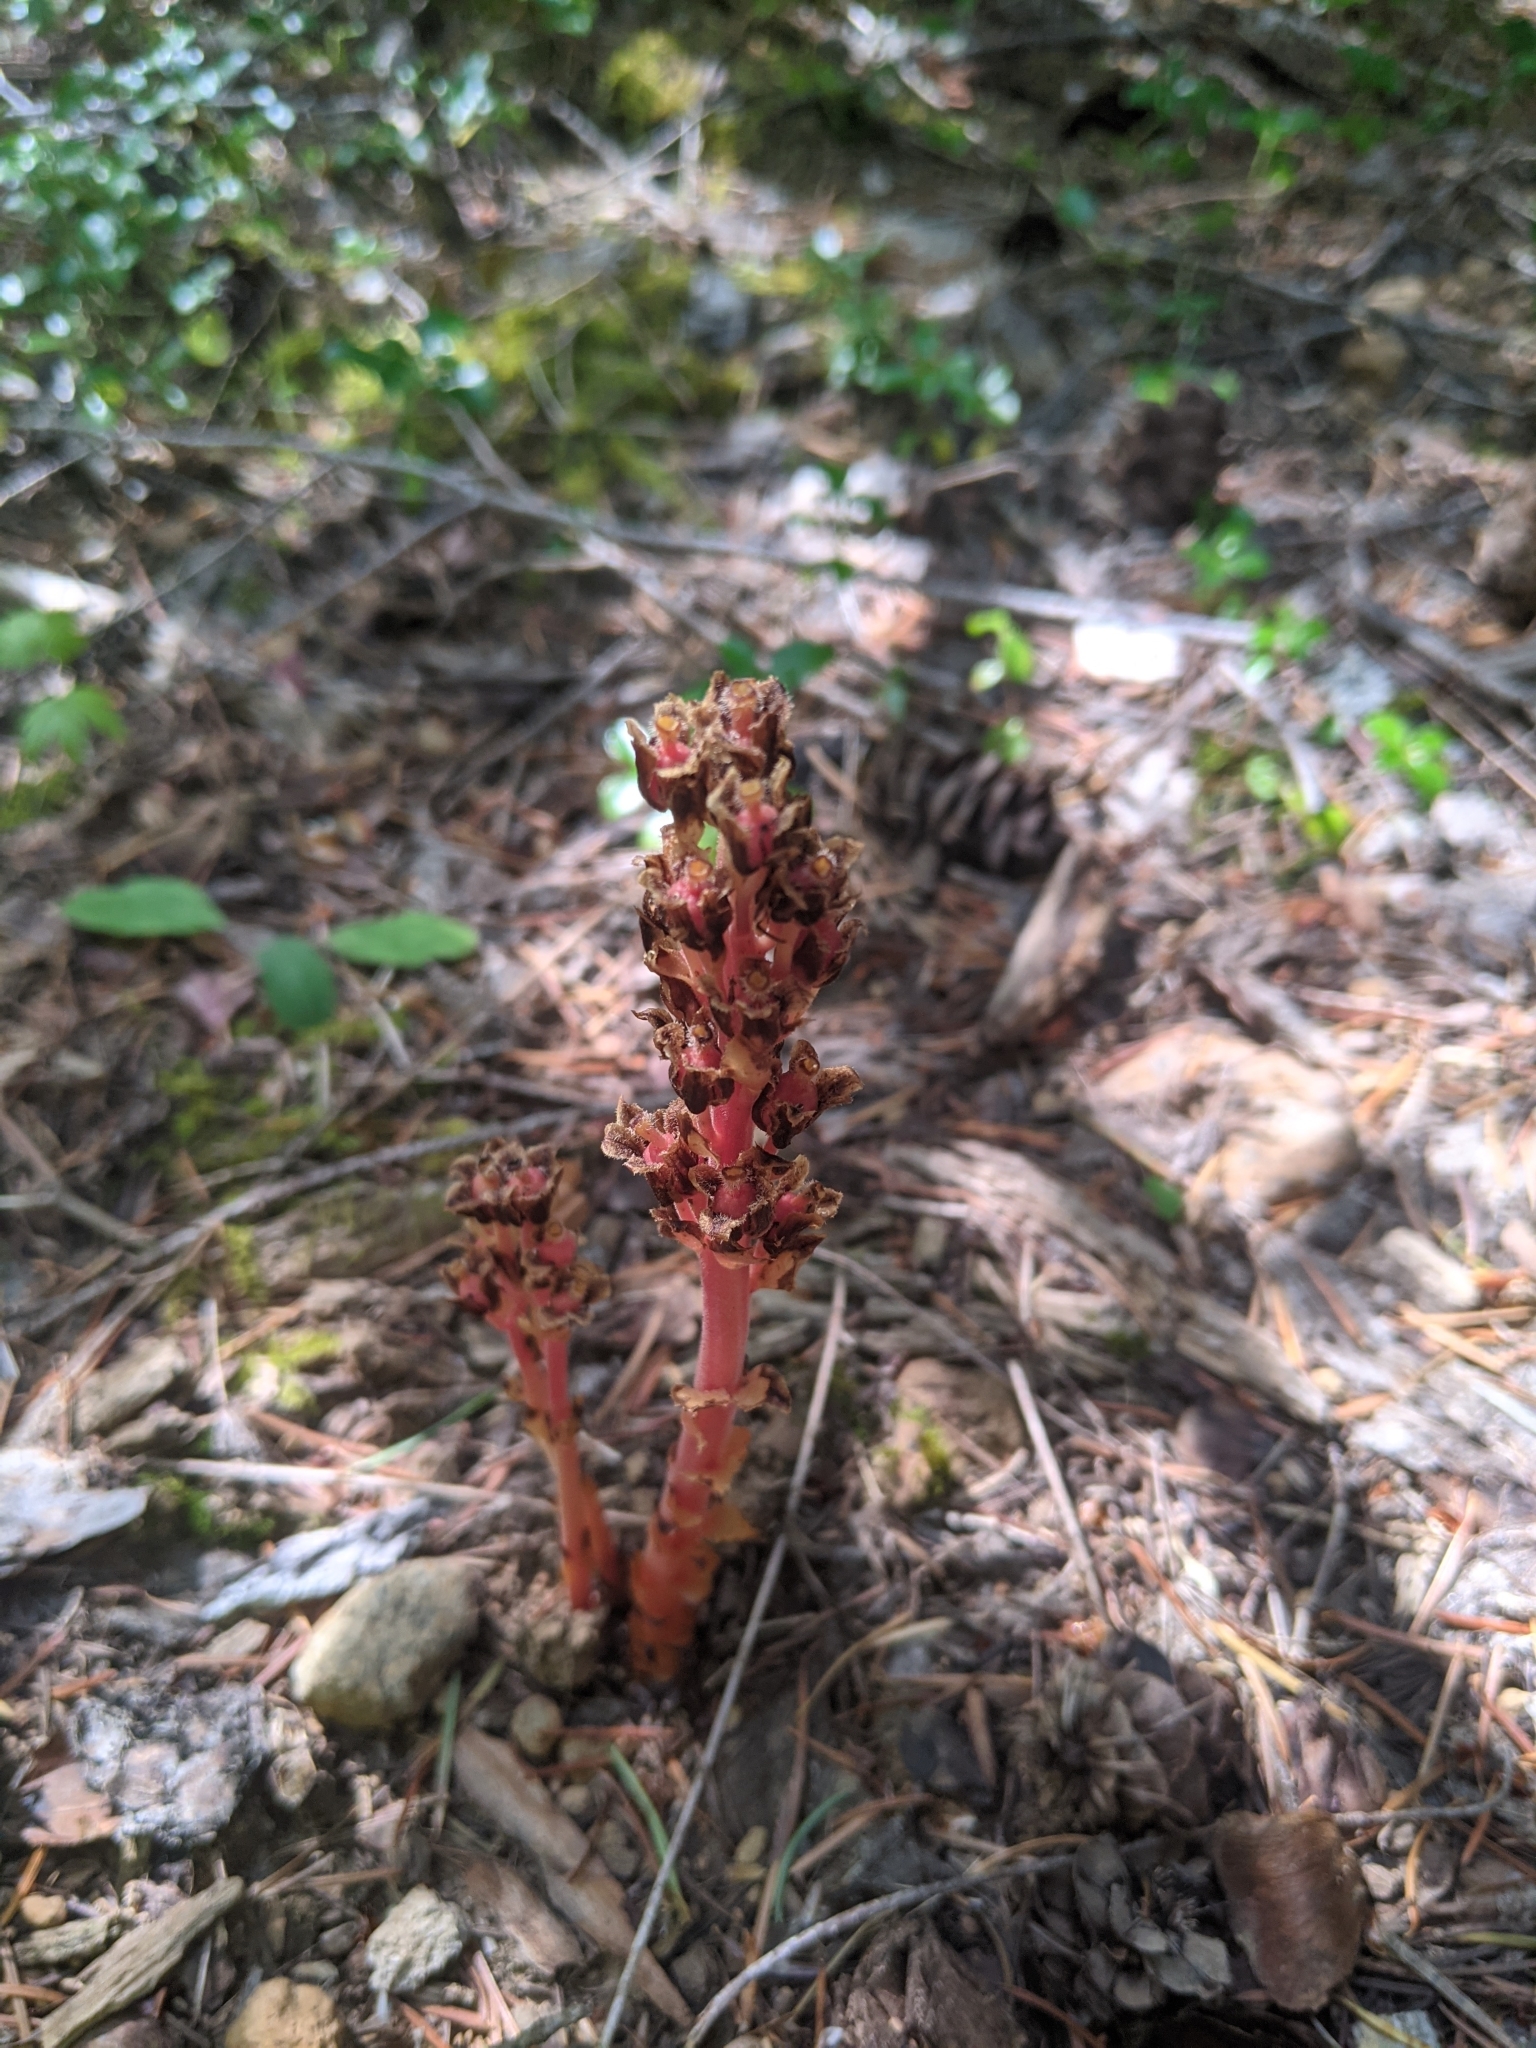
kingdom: Plantae
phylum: Tracheophyta
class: Magnoliopsida
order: Ericales
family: Ericaceae
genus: Hypopitys
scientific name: Hypopitys monotropa
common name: Yellow bird's-nest
